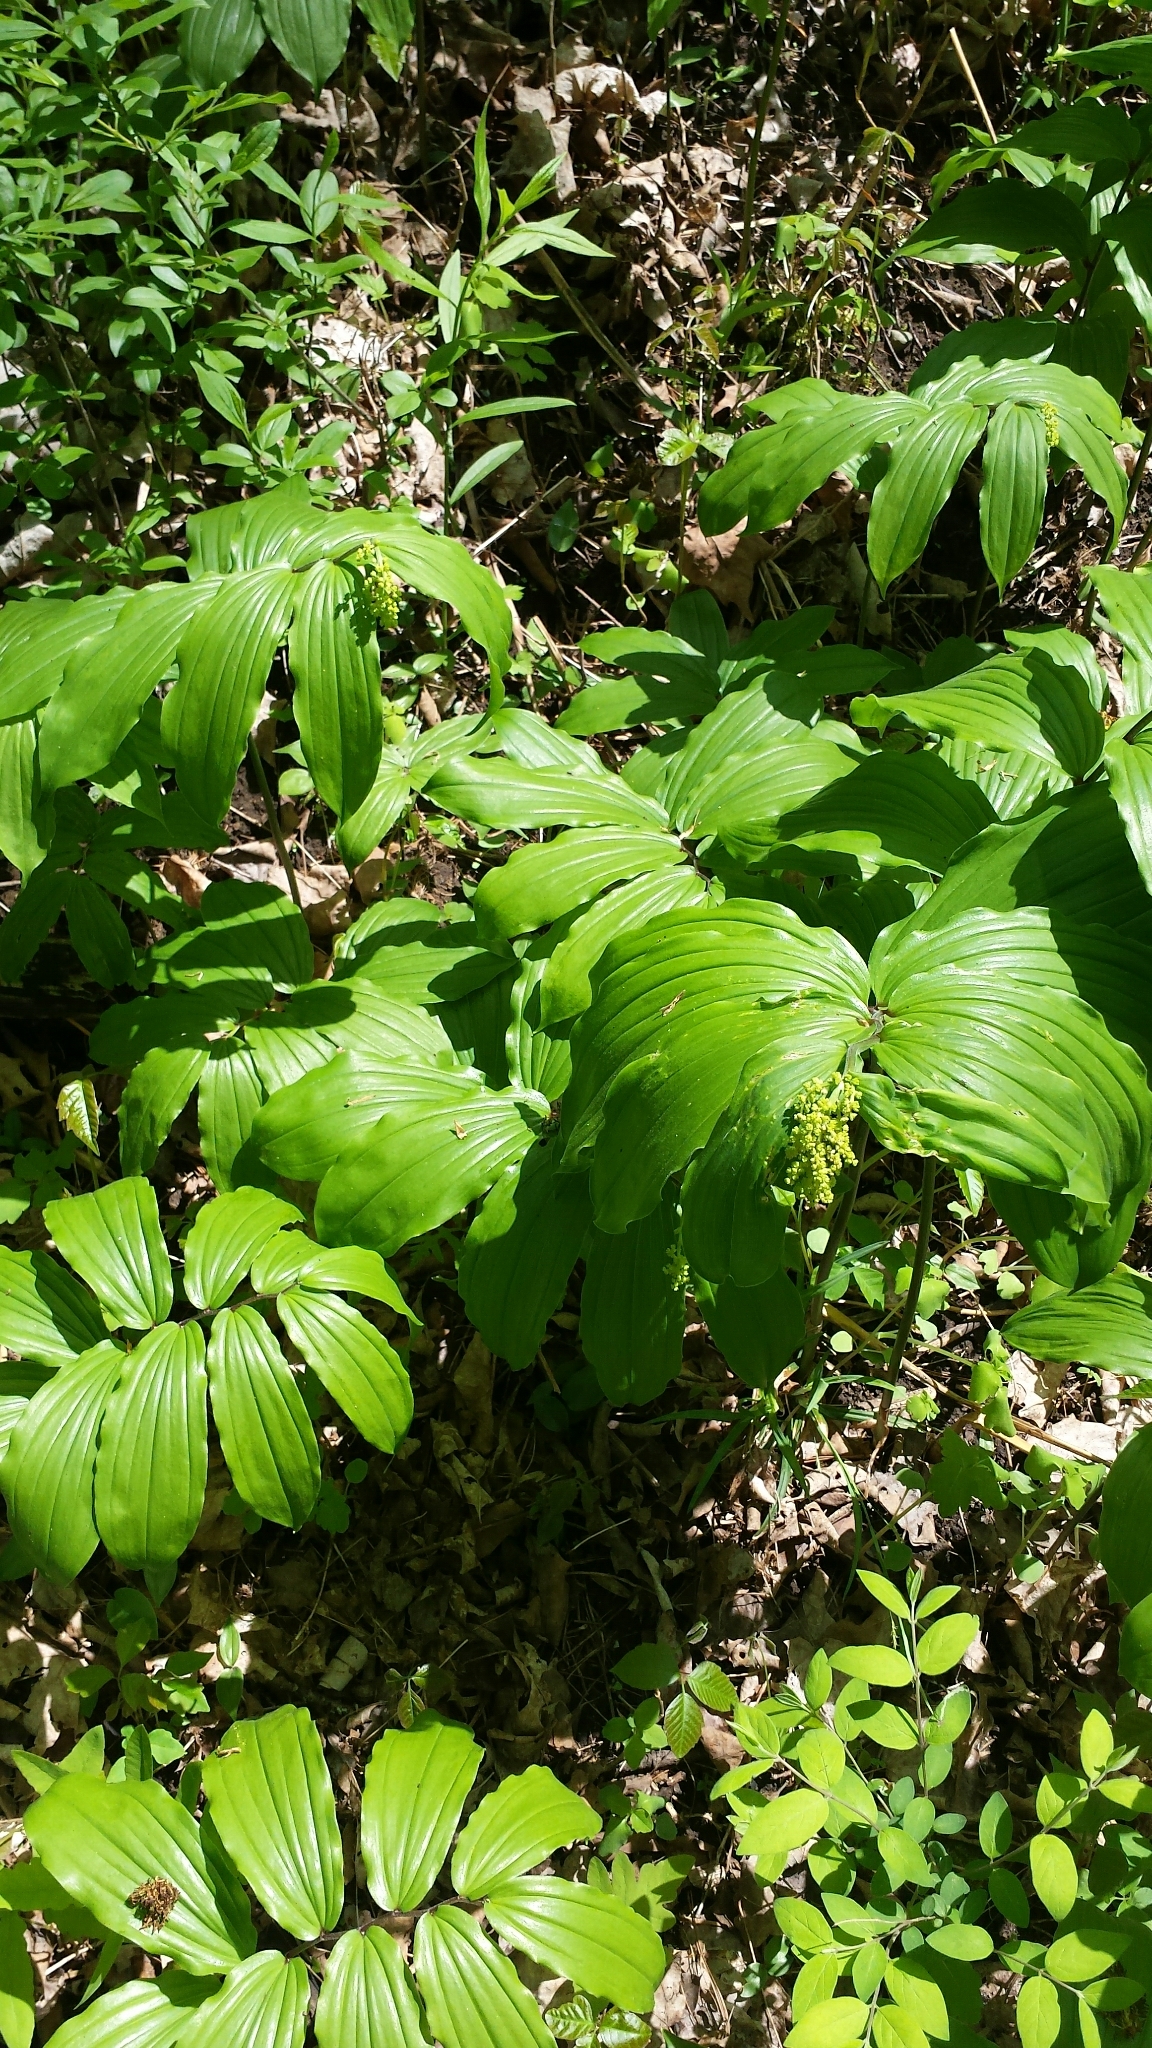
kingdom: Plantae
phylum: Tracheophyta
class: Liliopsida
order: Asparagales
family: Asparagaceae
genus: Maianthemum
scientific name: Maianthemum racemosum
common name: False spikenard
